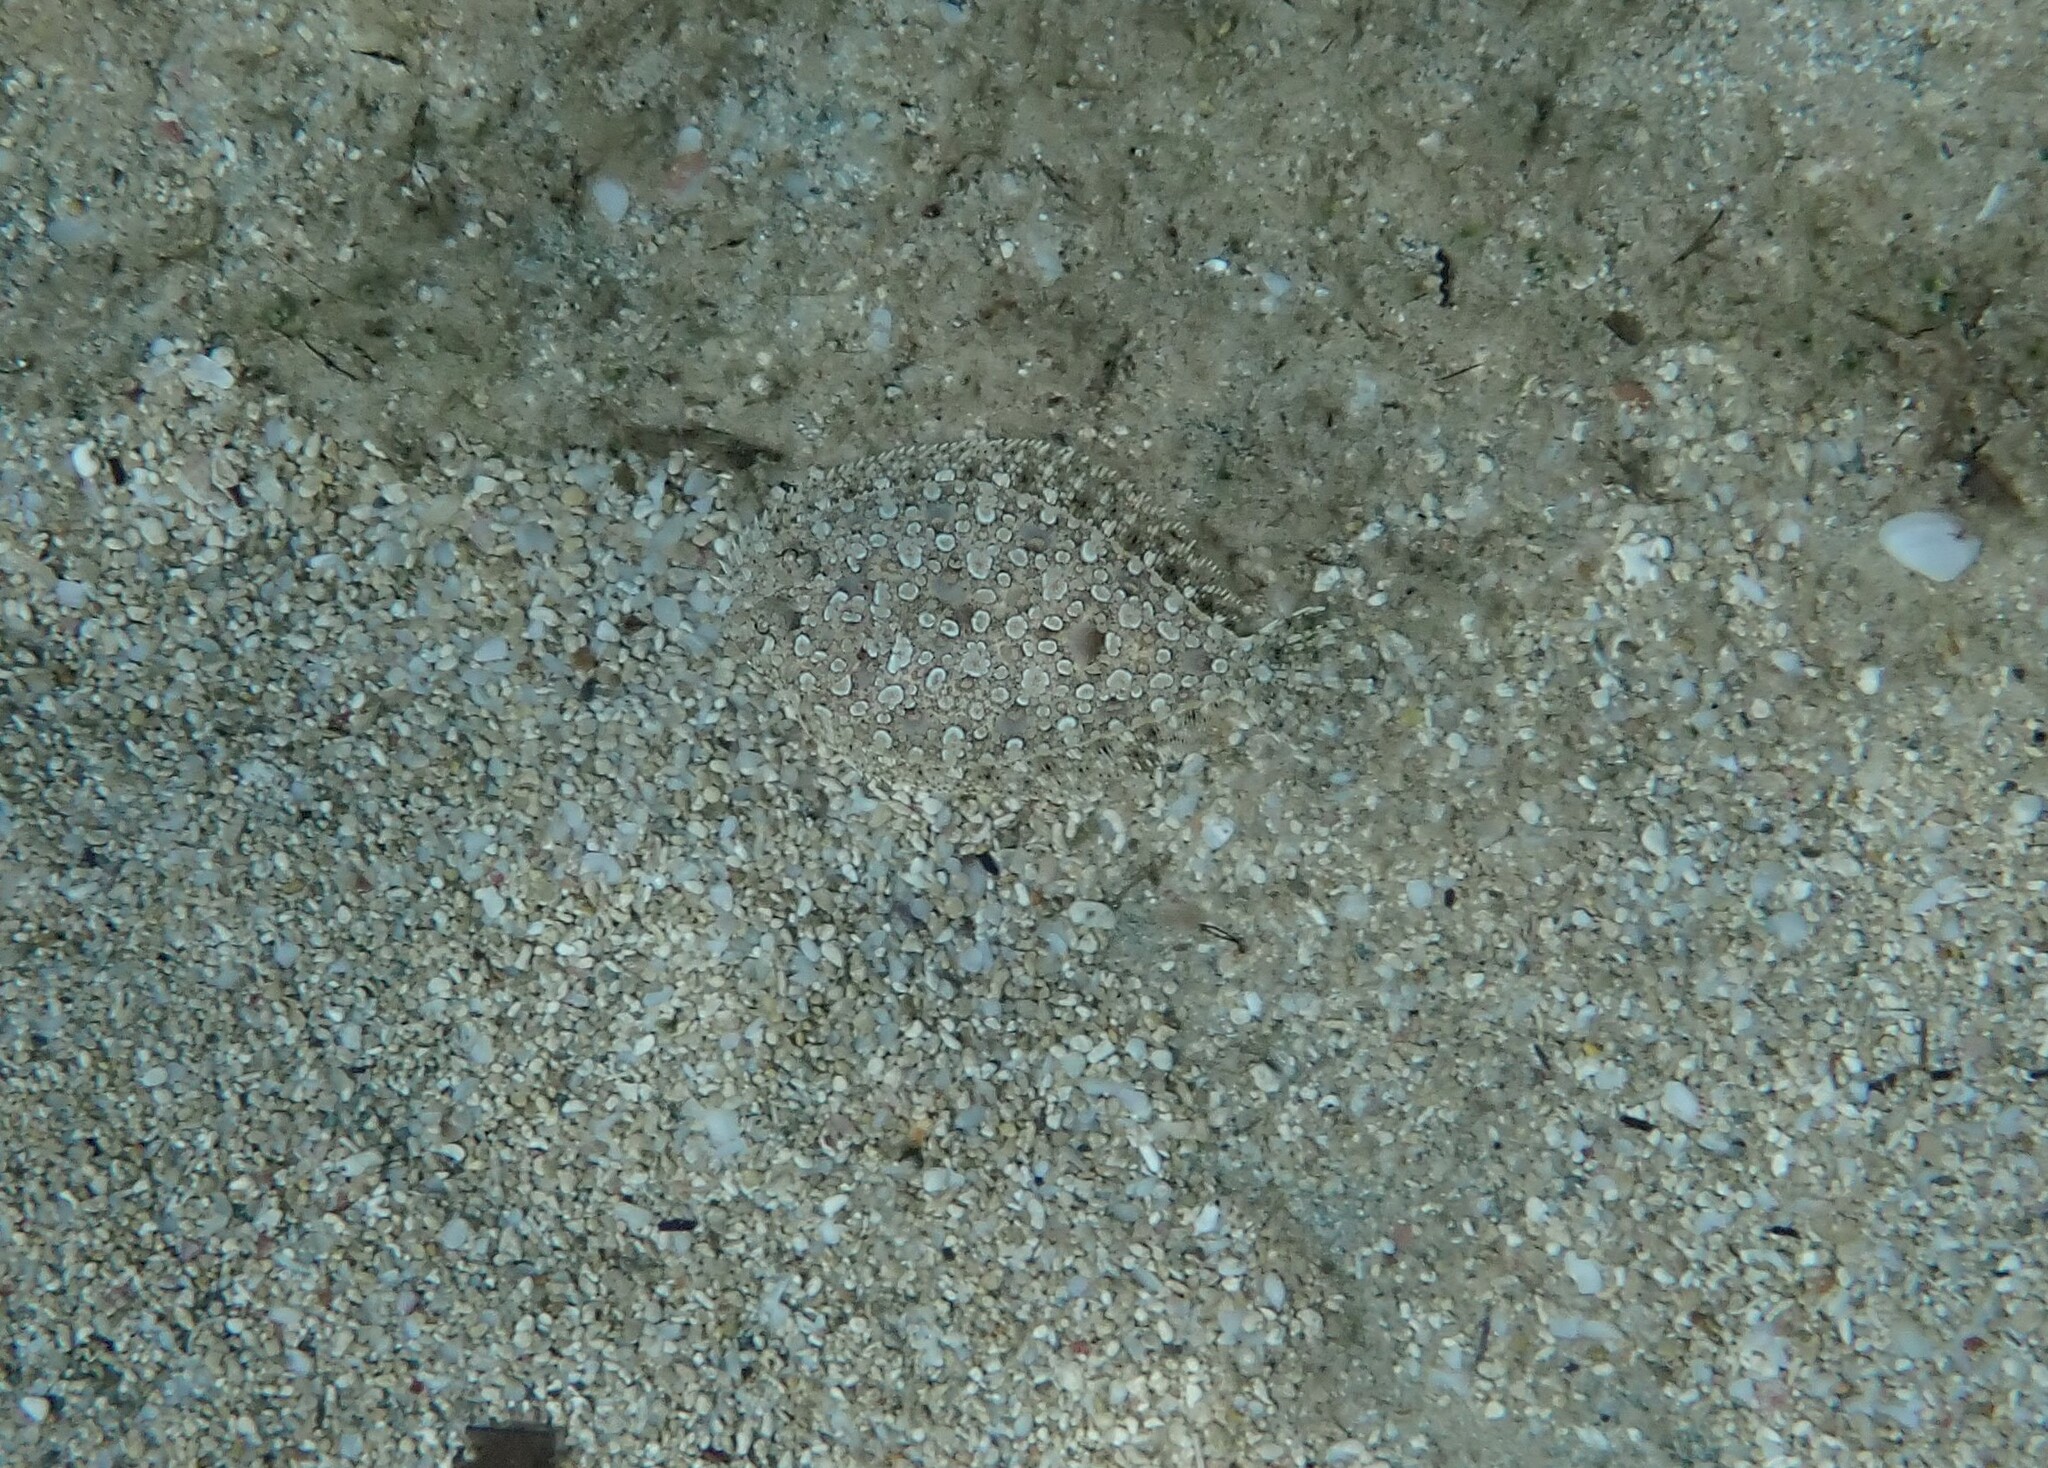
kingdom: Animalia
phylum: Chordata
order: Pleuronectiformes
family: Bothidae
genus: Bothus
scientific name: Bothus podas
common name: Wide-eyed flounder
